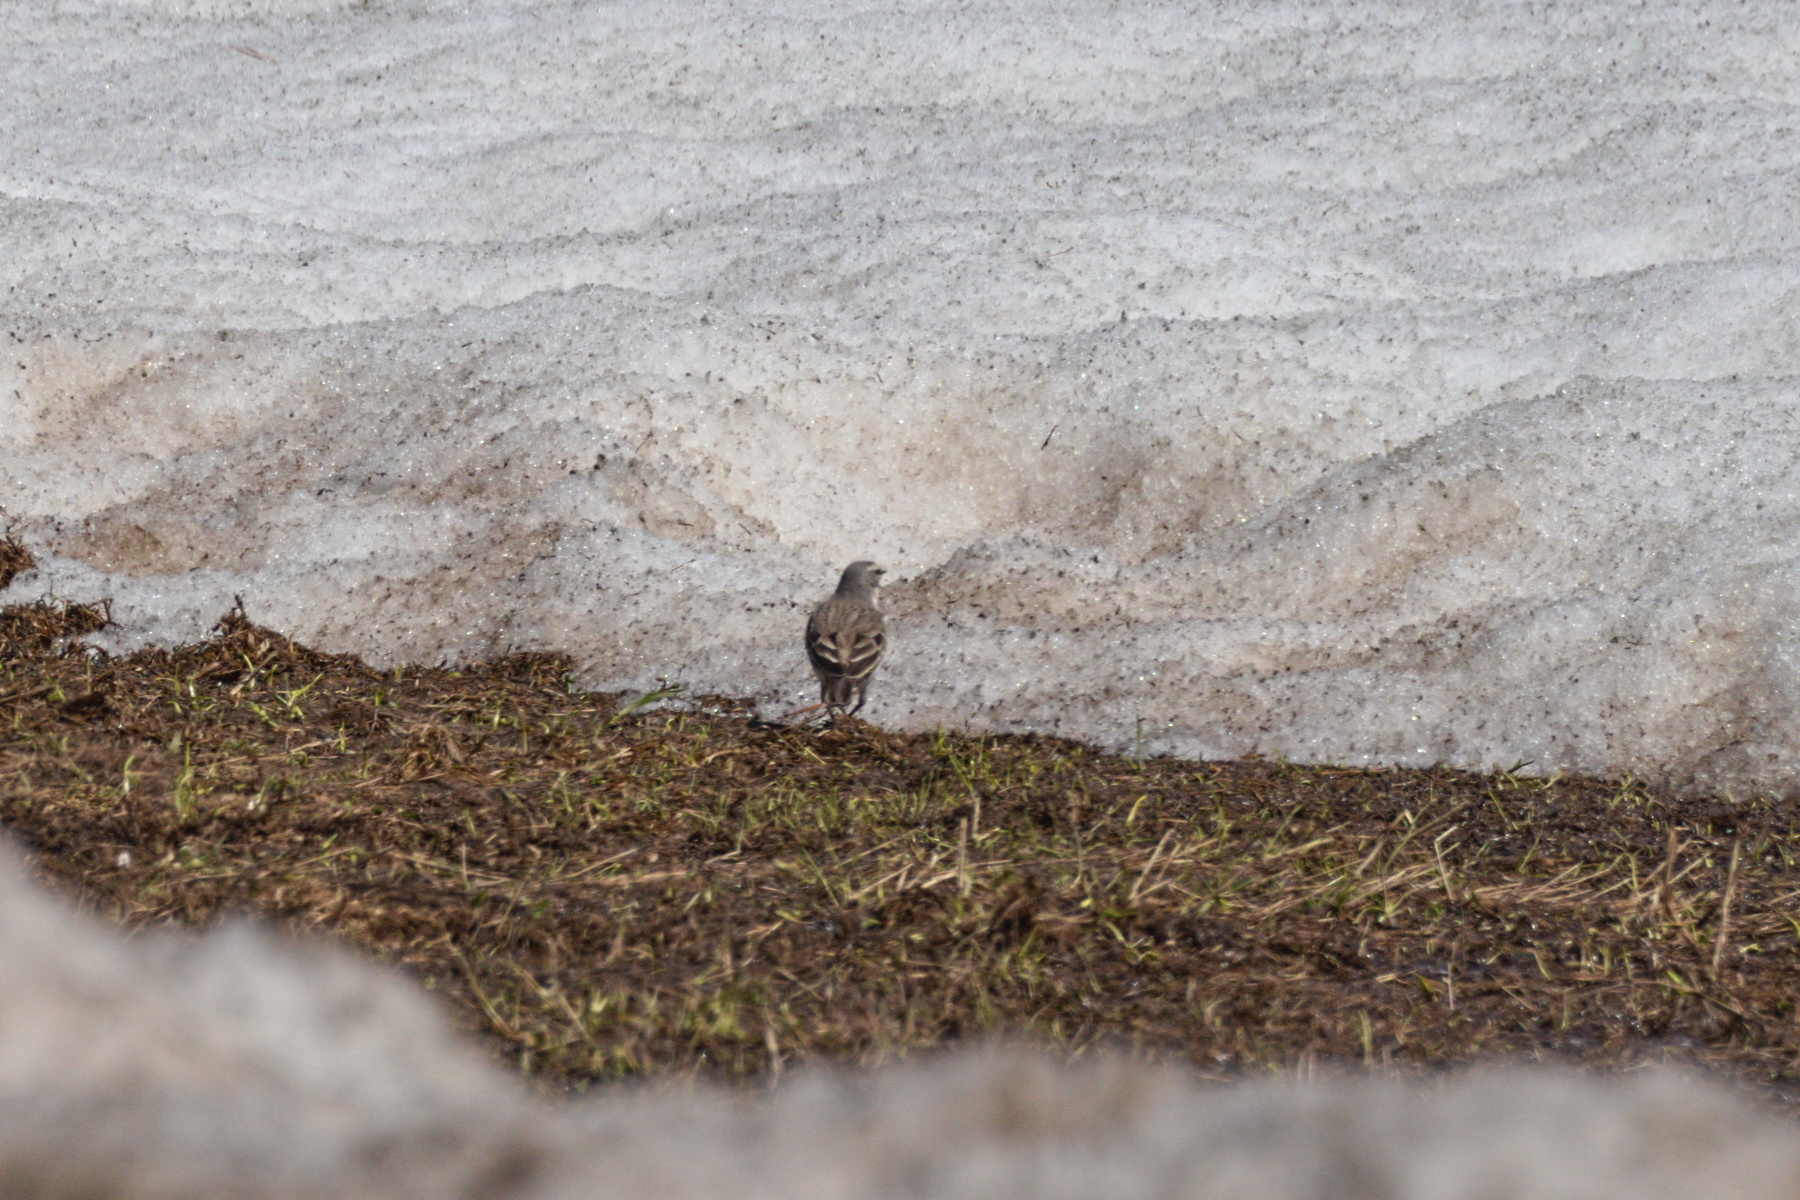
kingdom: Animalia
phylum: Chordata
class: Aves
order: Passeriformes
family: Motacillidae
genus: Motacilla
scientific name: Motacilla flava
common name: Western yellow wagtail
